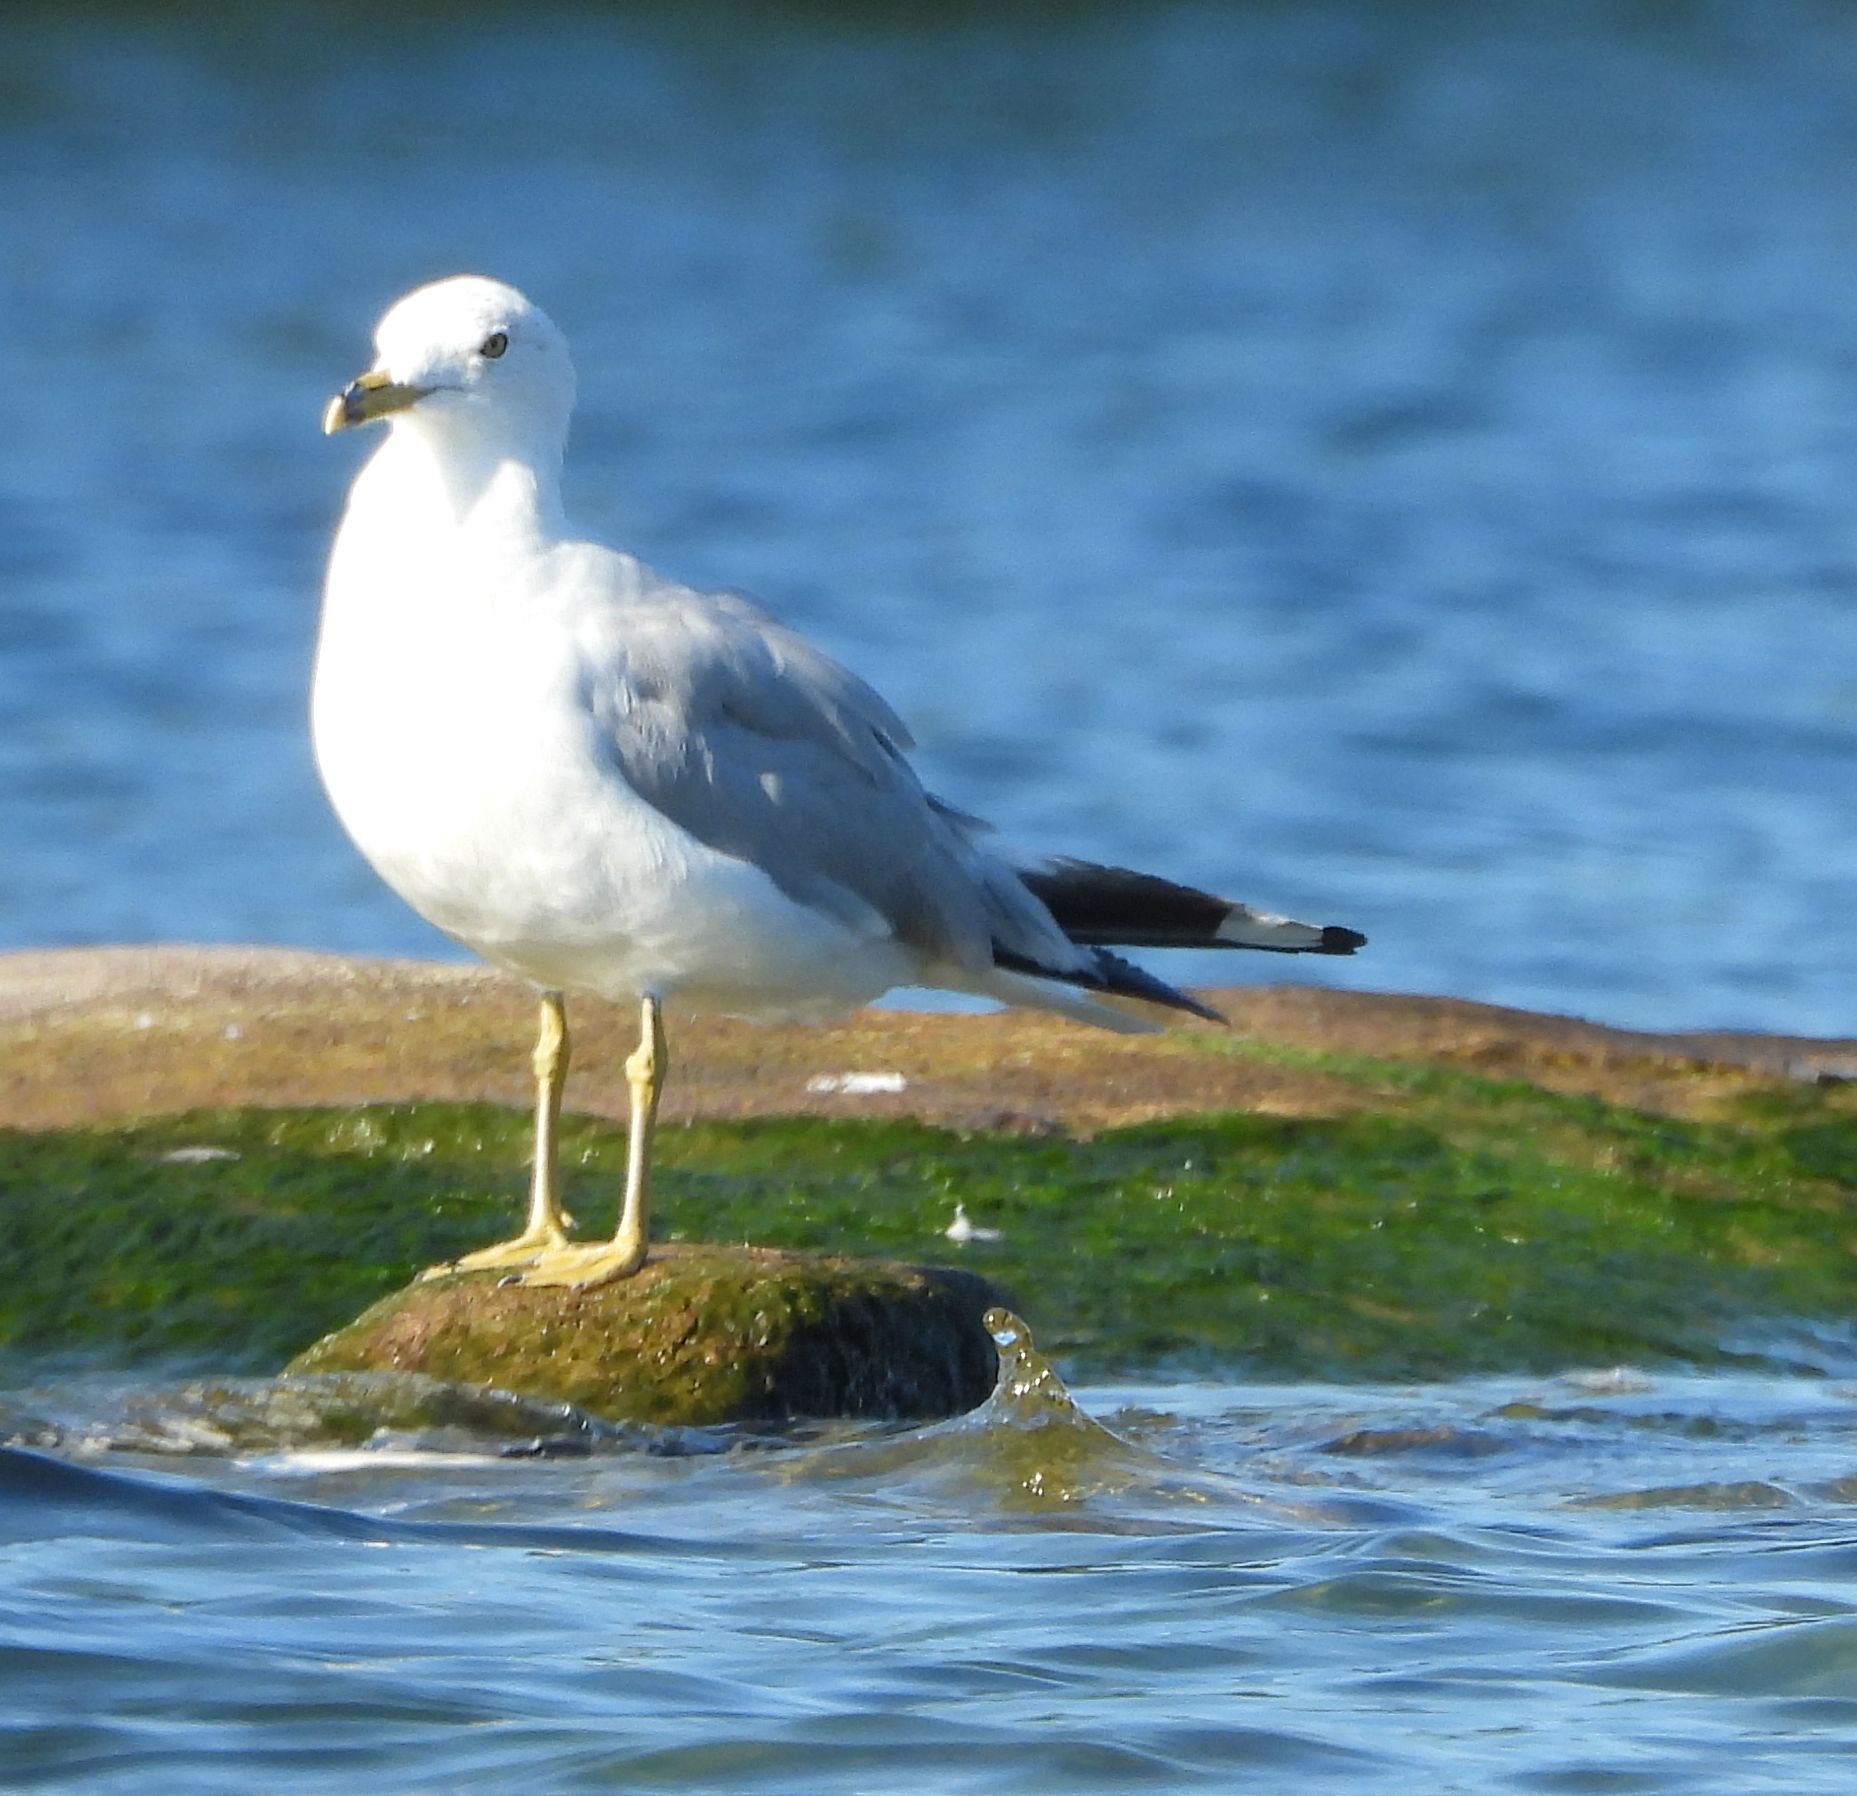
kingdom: Animalia
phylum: Chordata
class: Aves
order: Charadriiformes
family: Laridae
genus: Larus
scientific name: Larus delawarensis
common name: Ring-billed gull
